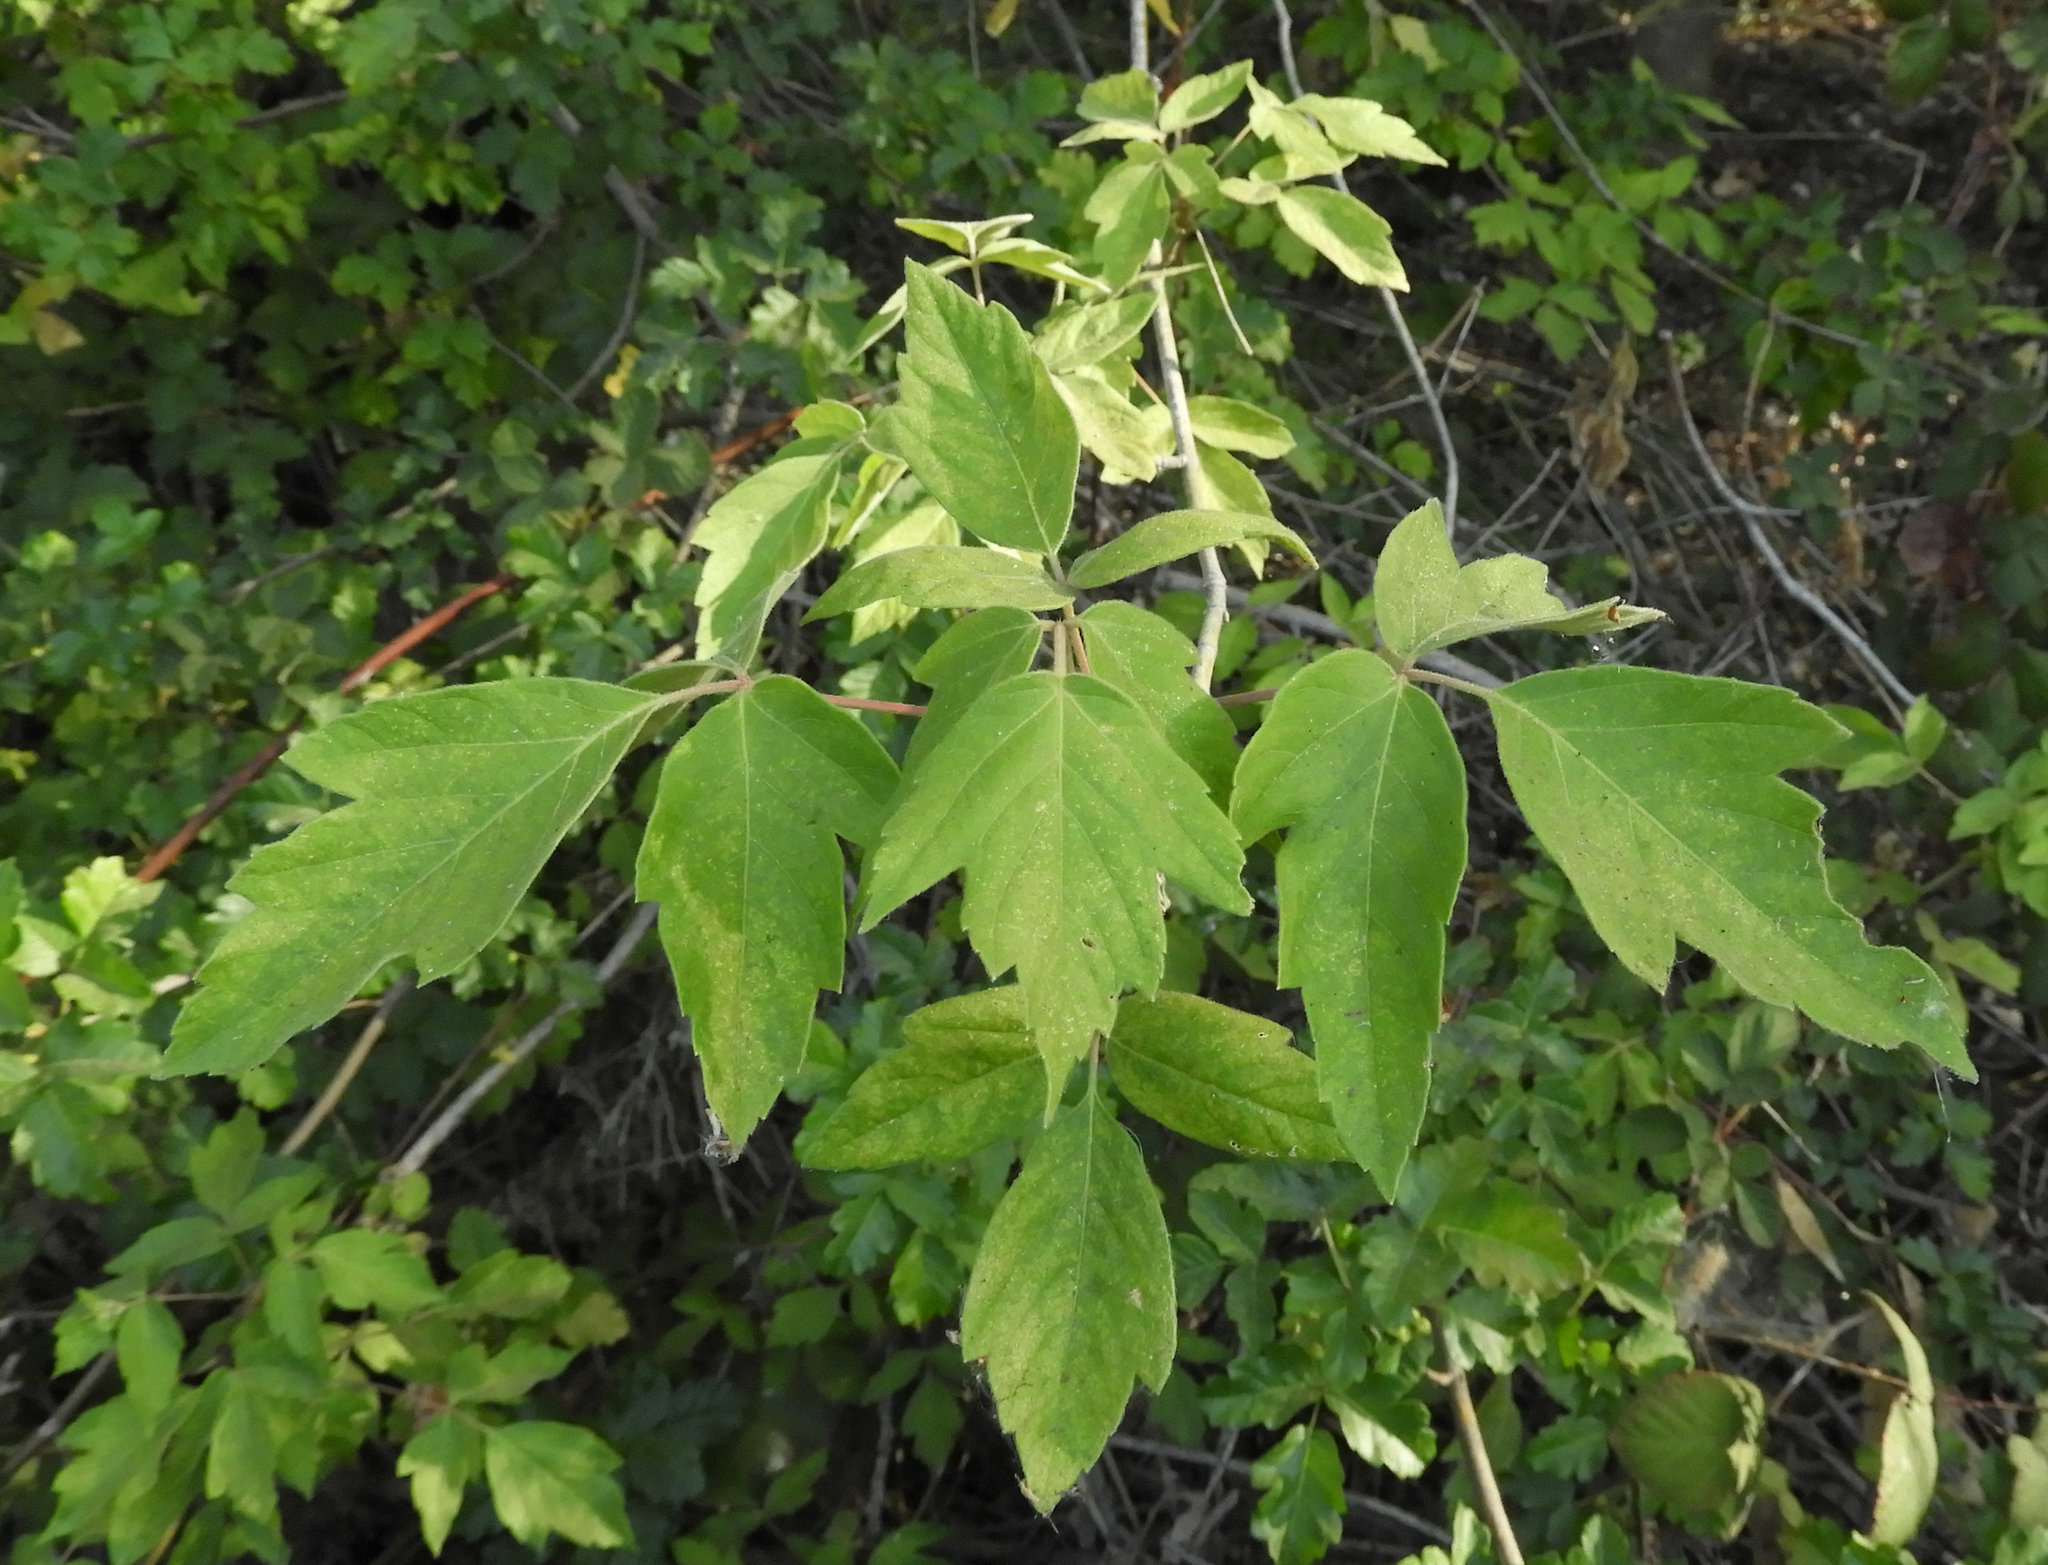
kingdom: Plantae
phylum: Tracheophyta
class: Magnoliopsida
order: Sapindales
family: Sapindaceae
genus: Acer
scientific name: Acer negundo
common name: Ashleaf maple
